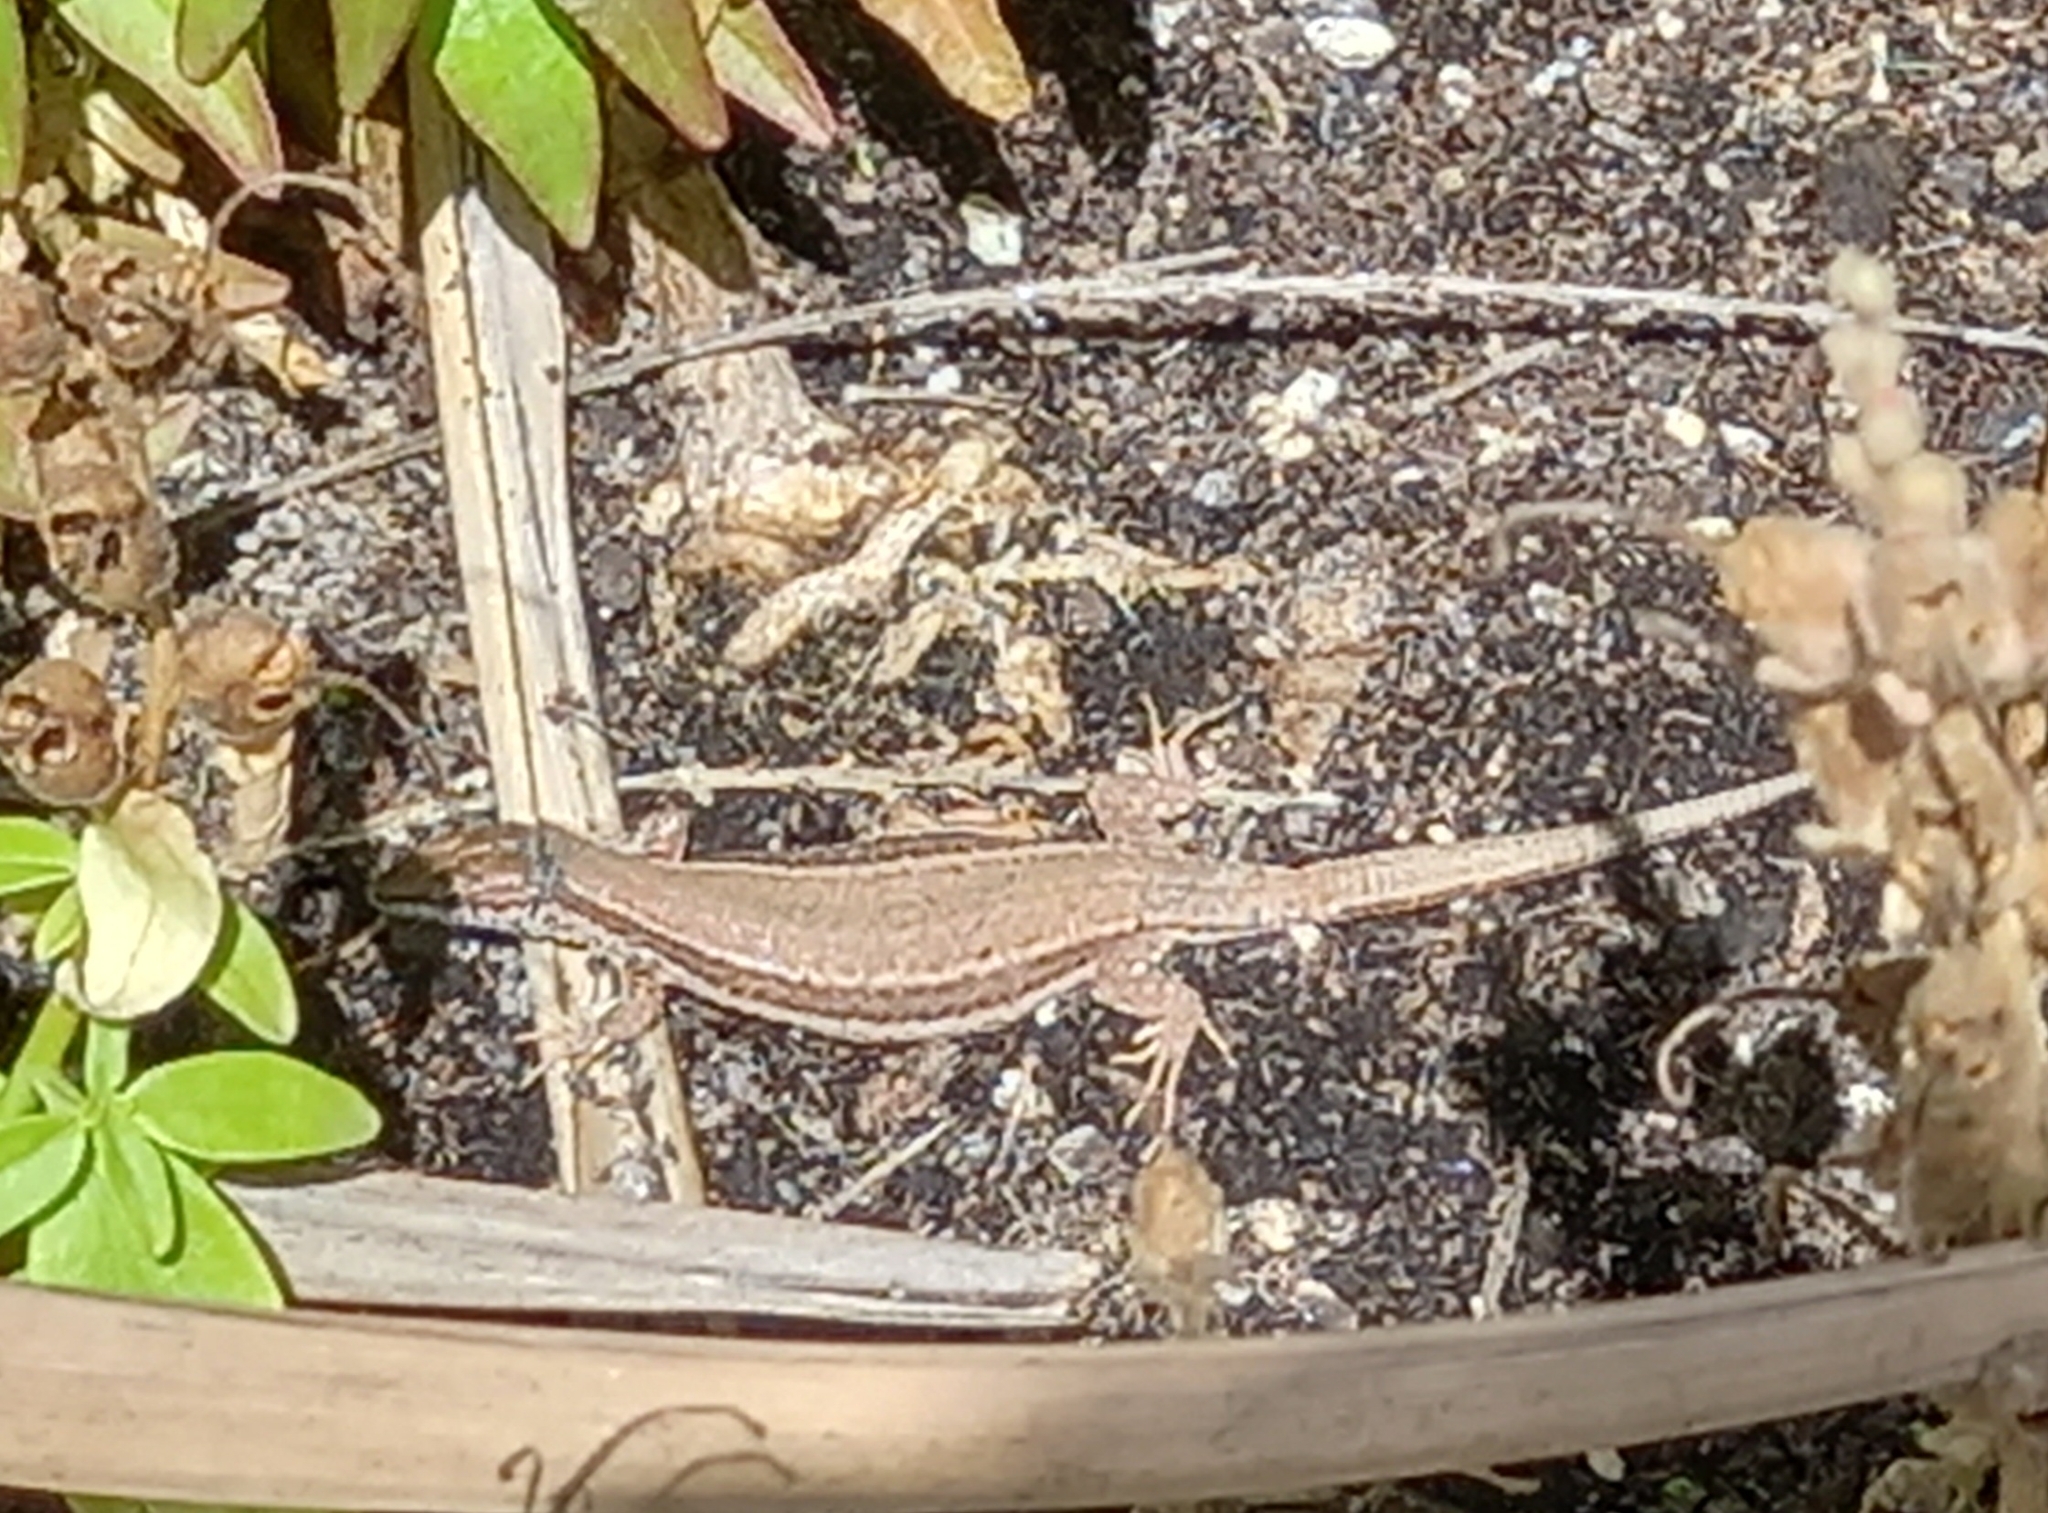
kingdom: Animalia
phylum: Chordata
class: Squamata
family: Lacertidae
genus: Podarcis
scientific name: Podarcis liolepis
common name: Catalonian wall lizard
